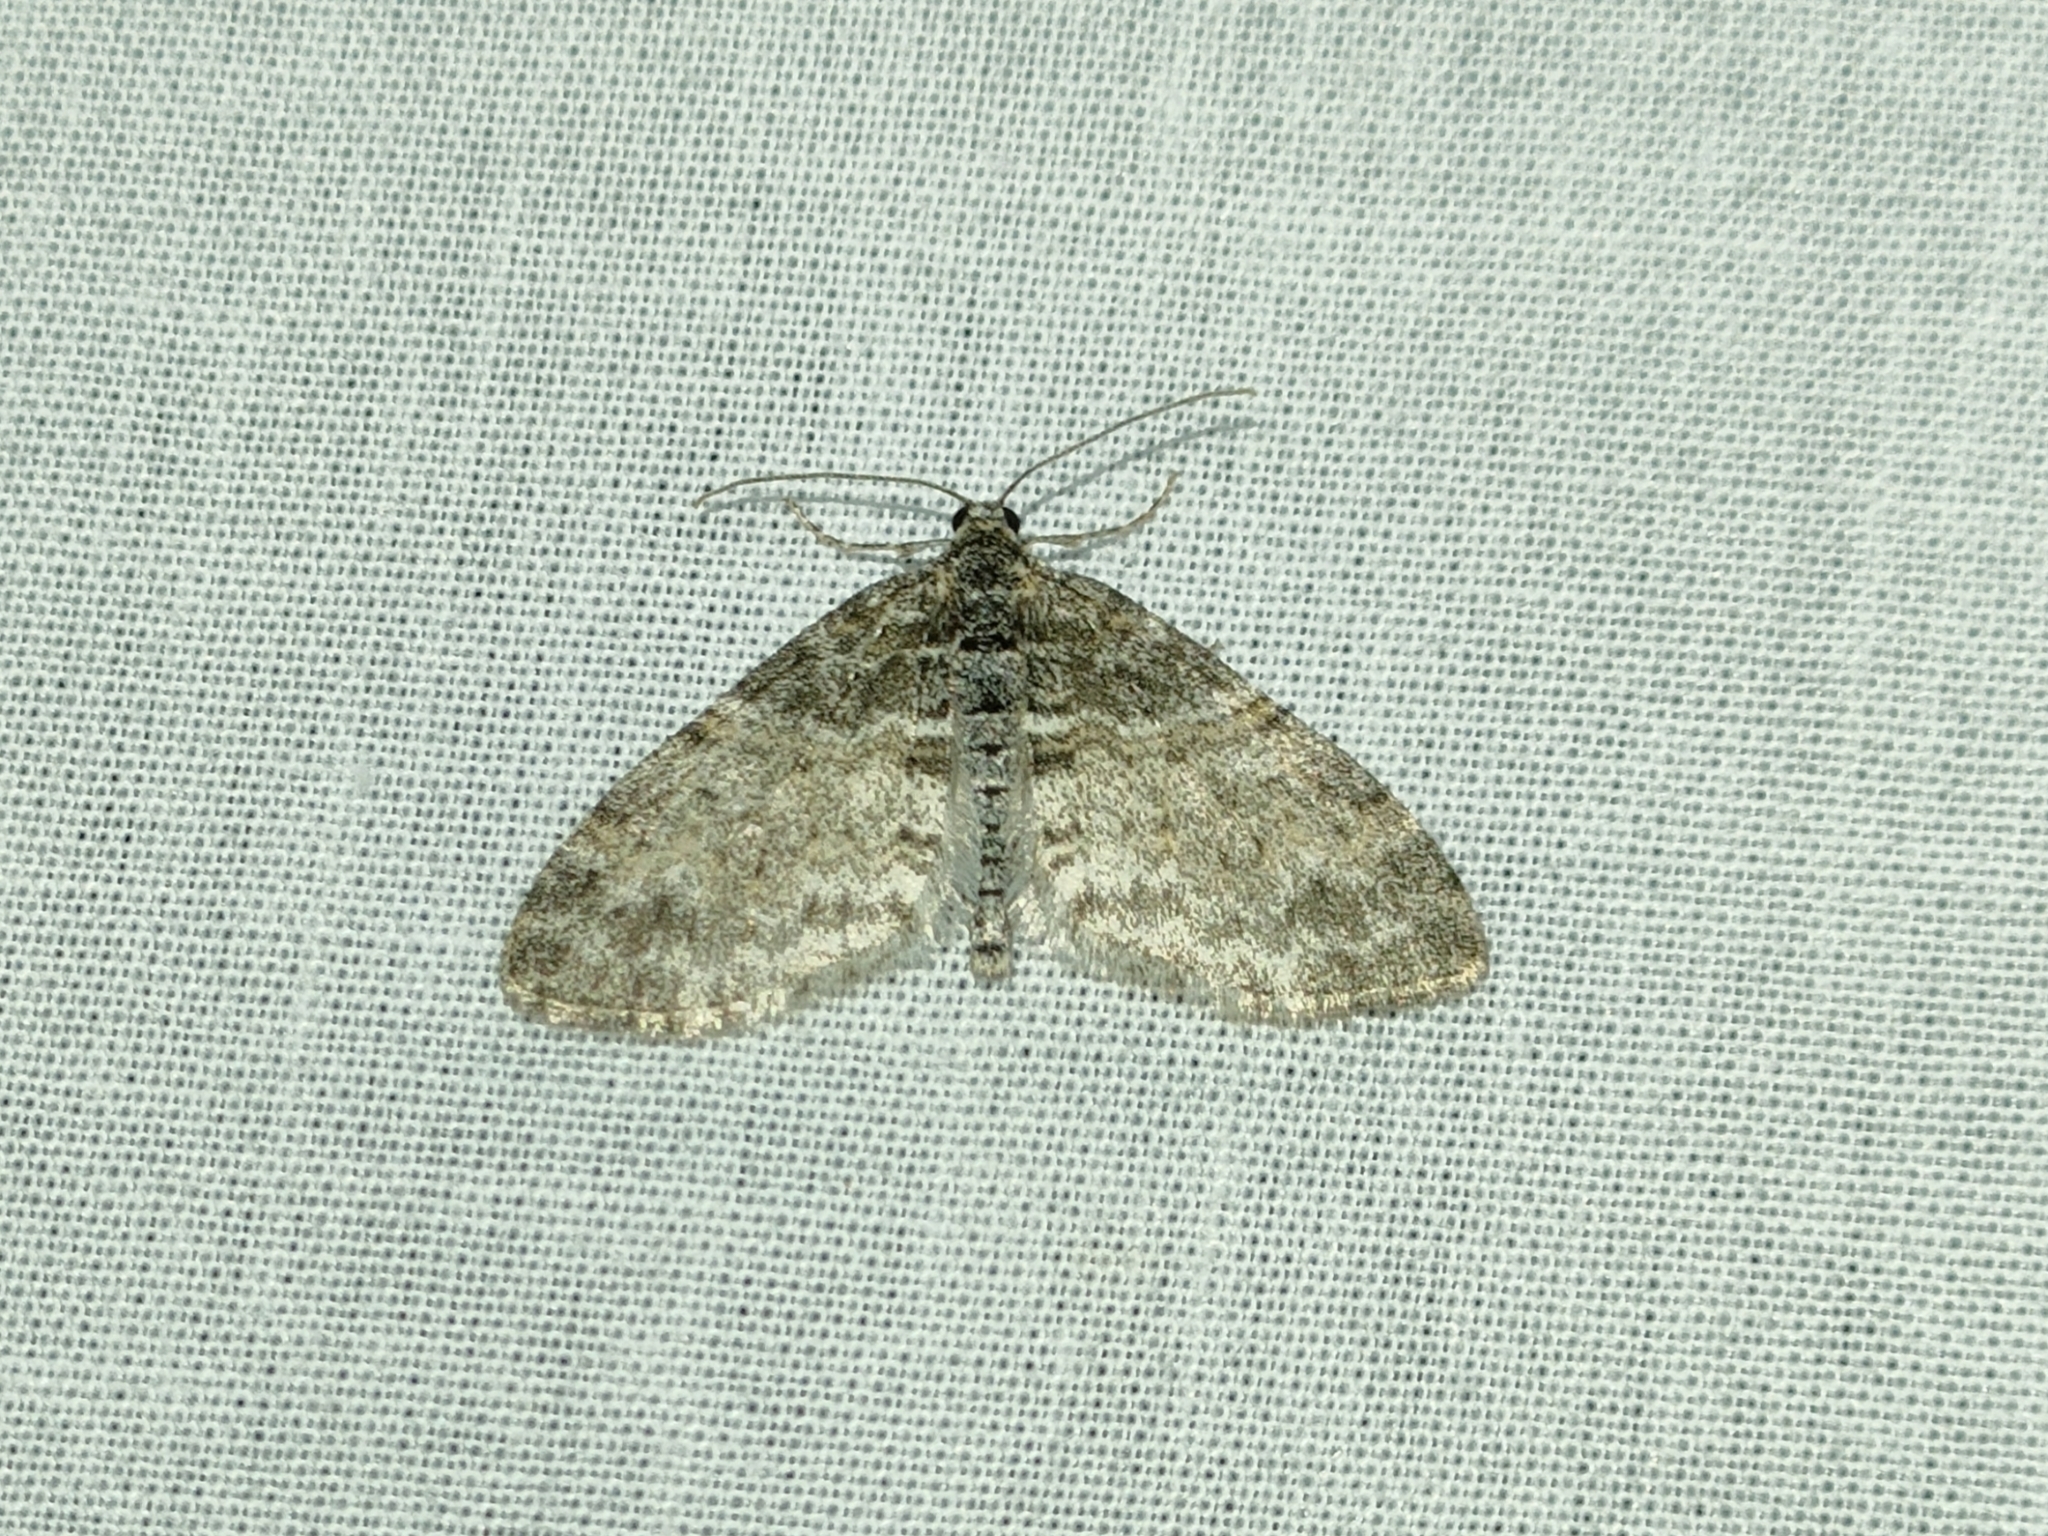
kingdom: Animalia
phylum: Arthropoda
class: Insecta
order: Lepidoptera
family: Geometridae
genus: Lobophora
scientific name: Lobophora halterata
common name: Seraphim
